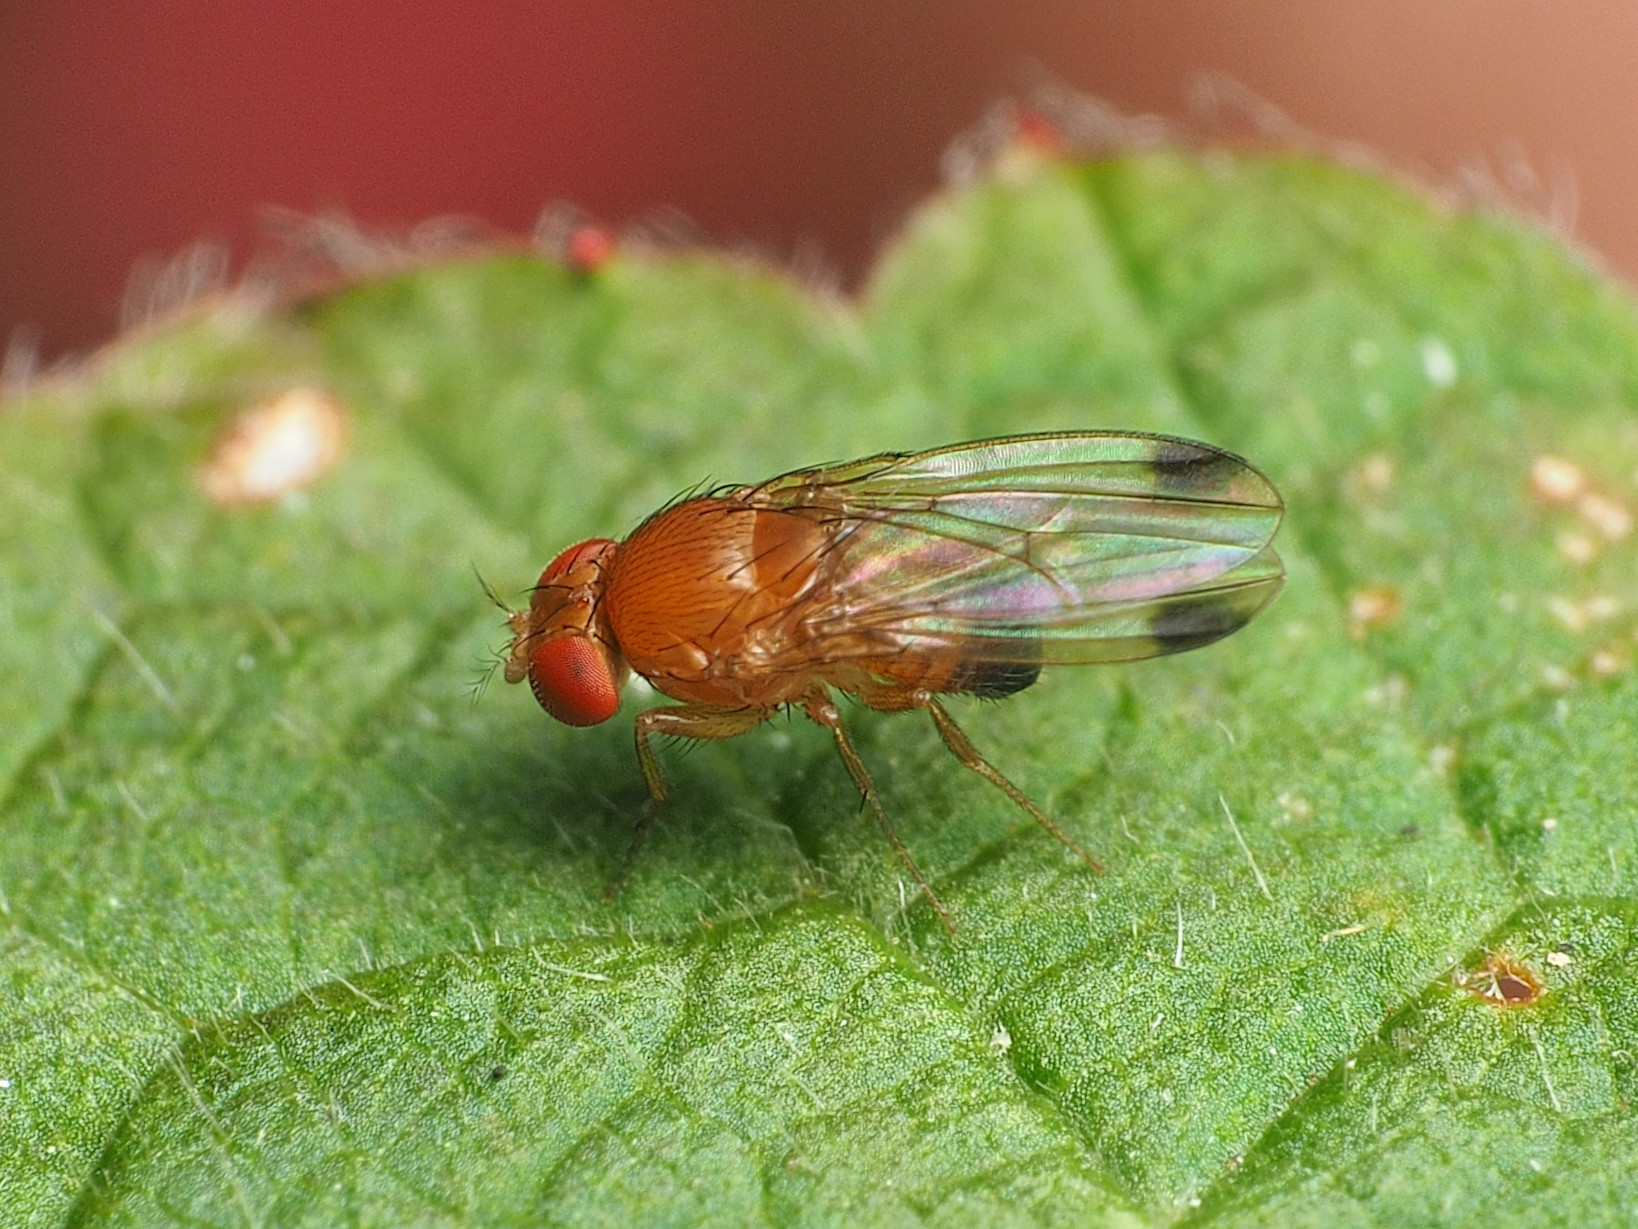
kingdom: Animalia
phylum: Arthropoda
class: Insecta
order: Diptera
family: Drosophilidae
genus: Drosophila
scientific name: Drosophila suzukii
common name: Spotted-wing drosophila
